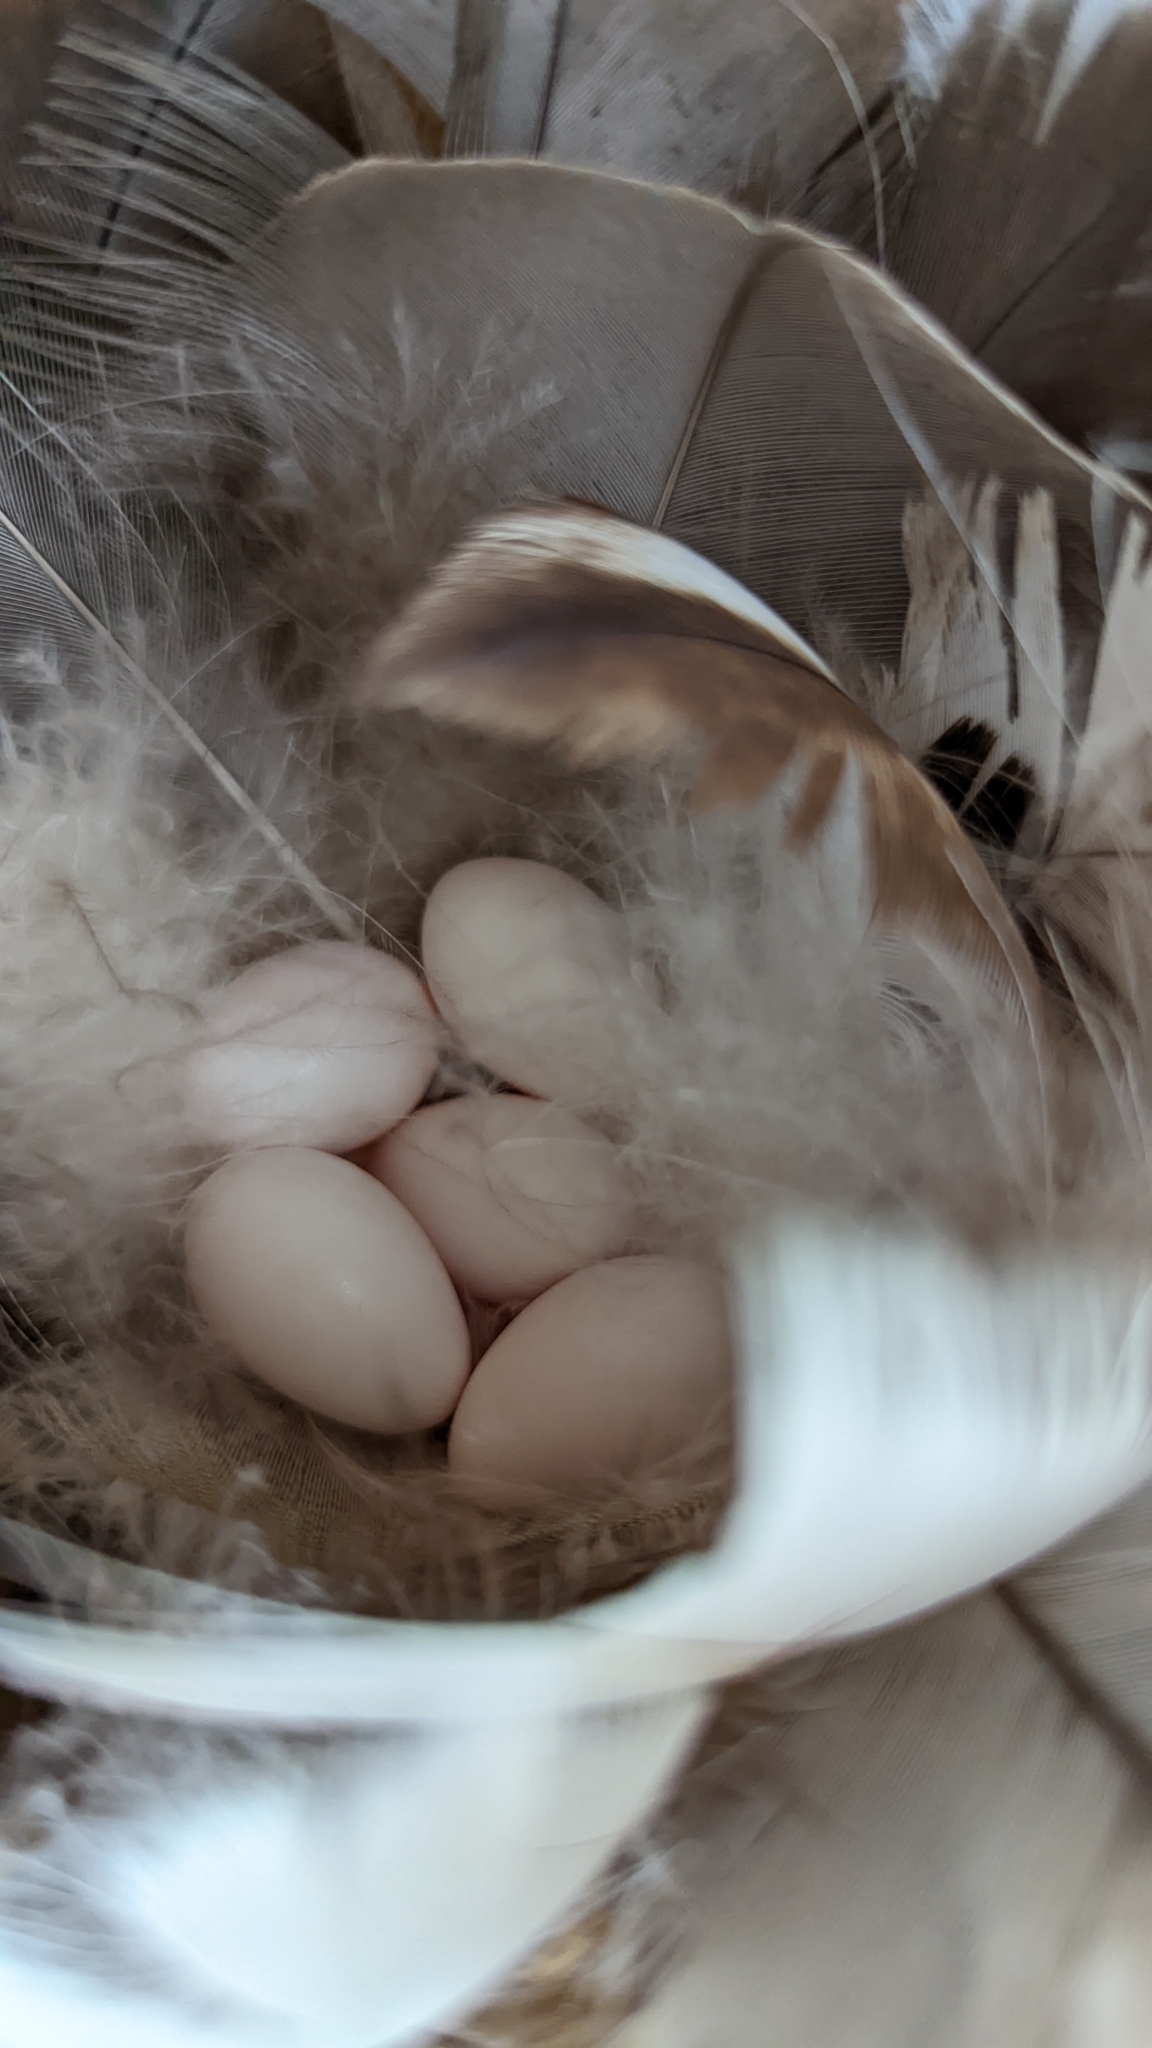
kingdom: Animalia
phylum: Chordata
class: Aves
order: Passeriformes
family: Hirundinidae
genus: Tachycineta
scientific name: Tachycineta bicolor
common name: Tree swallow
